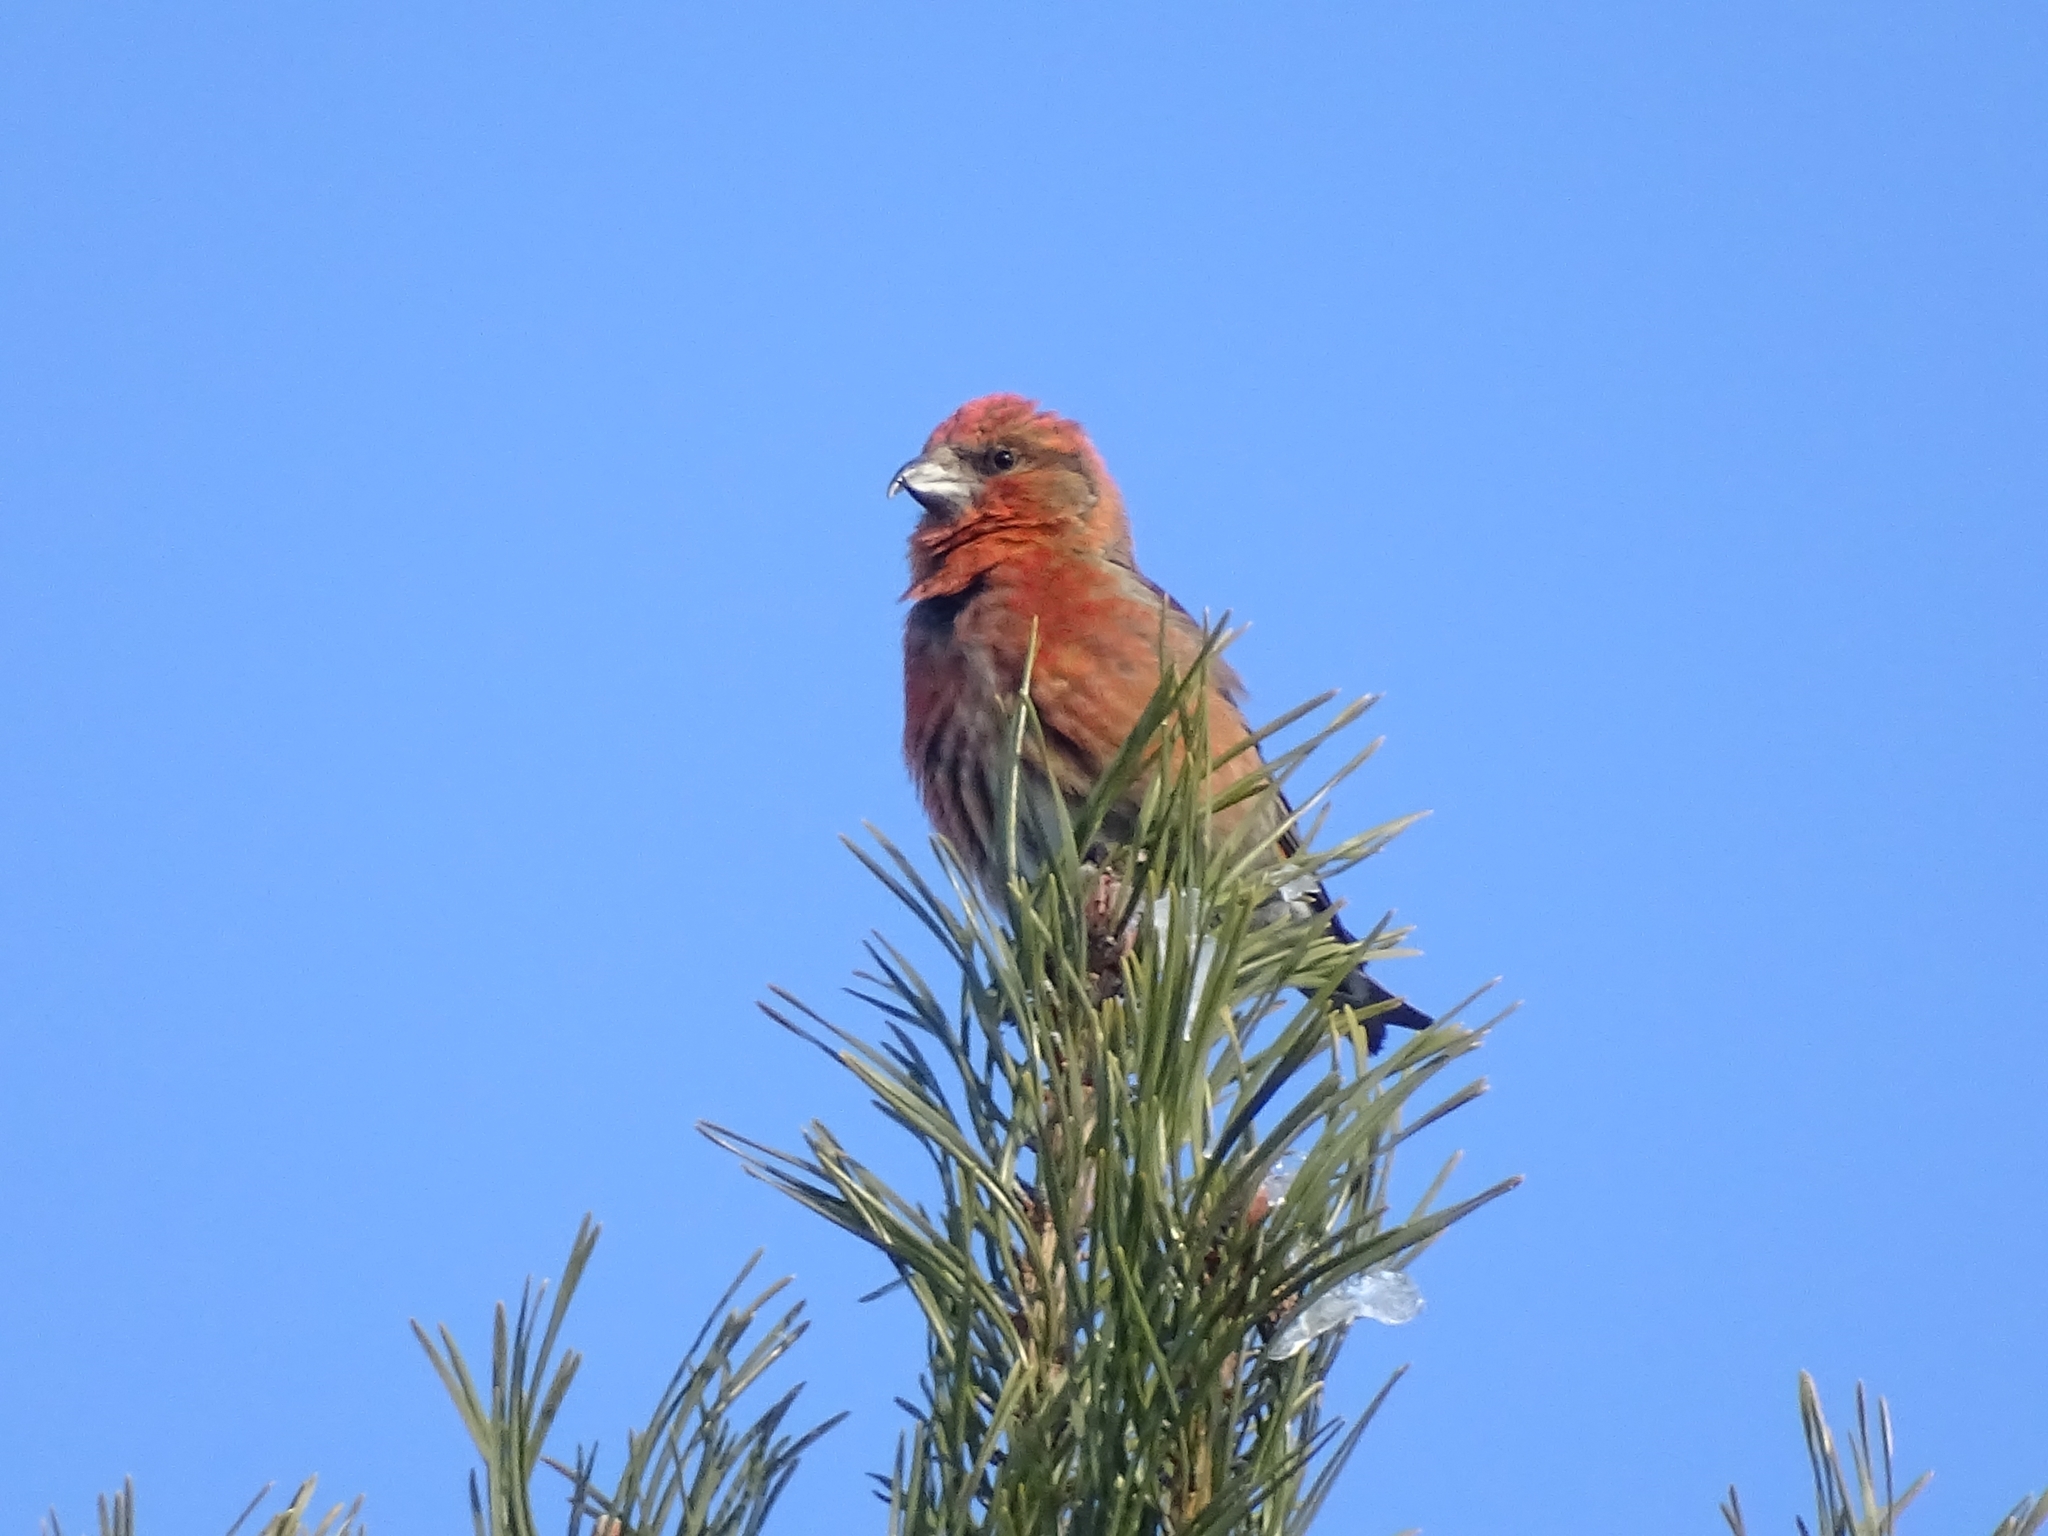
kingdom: Animalia
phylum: Chordata
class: Aves
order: Passeriformes
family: Fringillidae
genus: Loxia
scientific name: Loxia curvirostra
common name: Red crossbill
